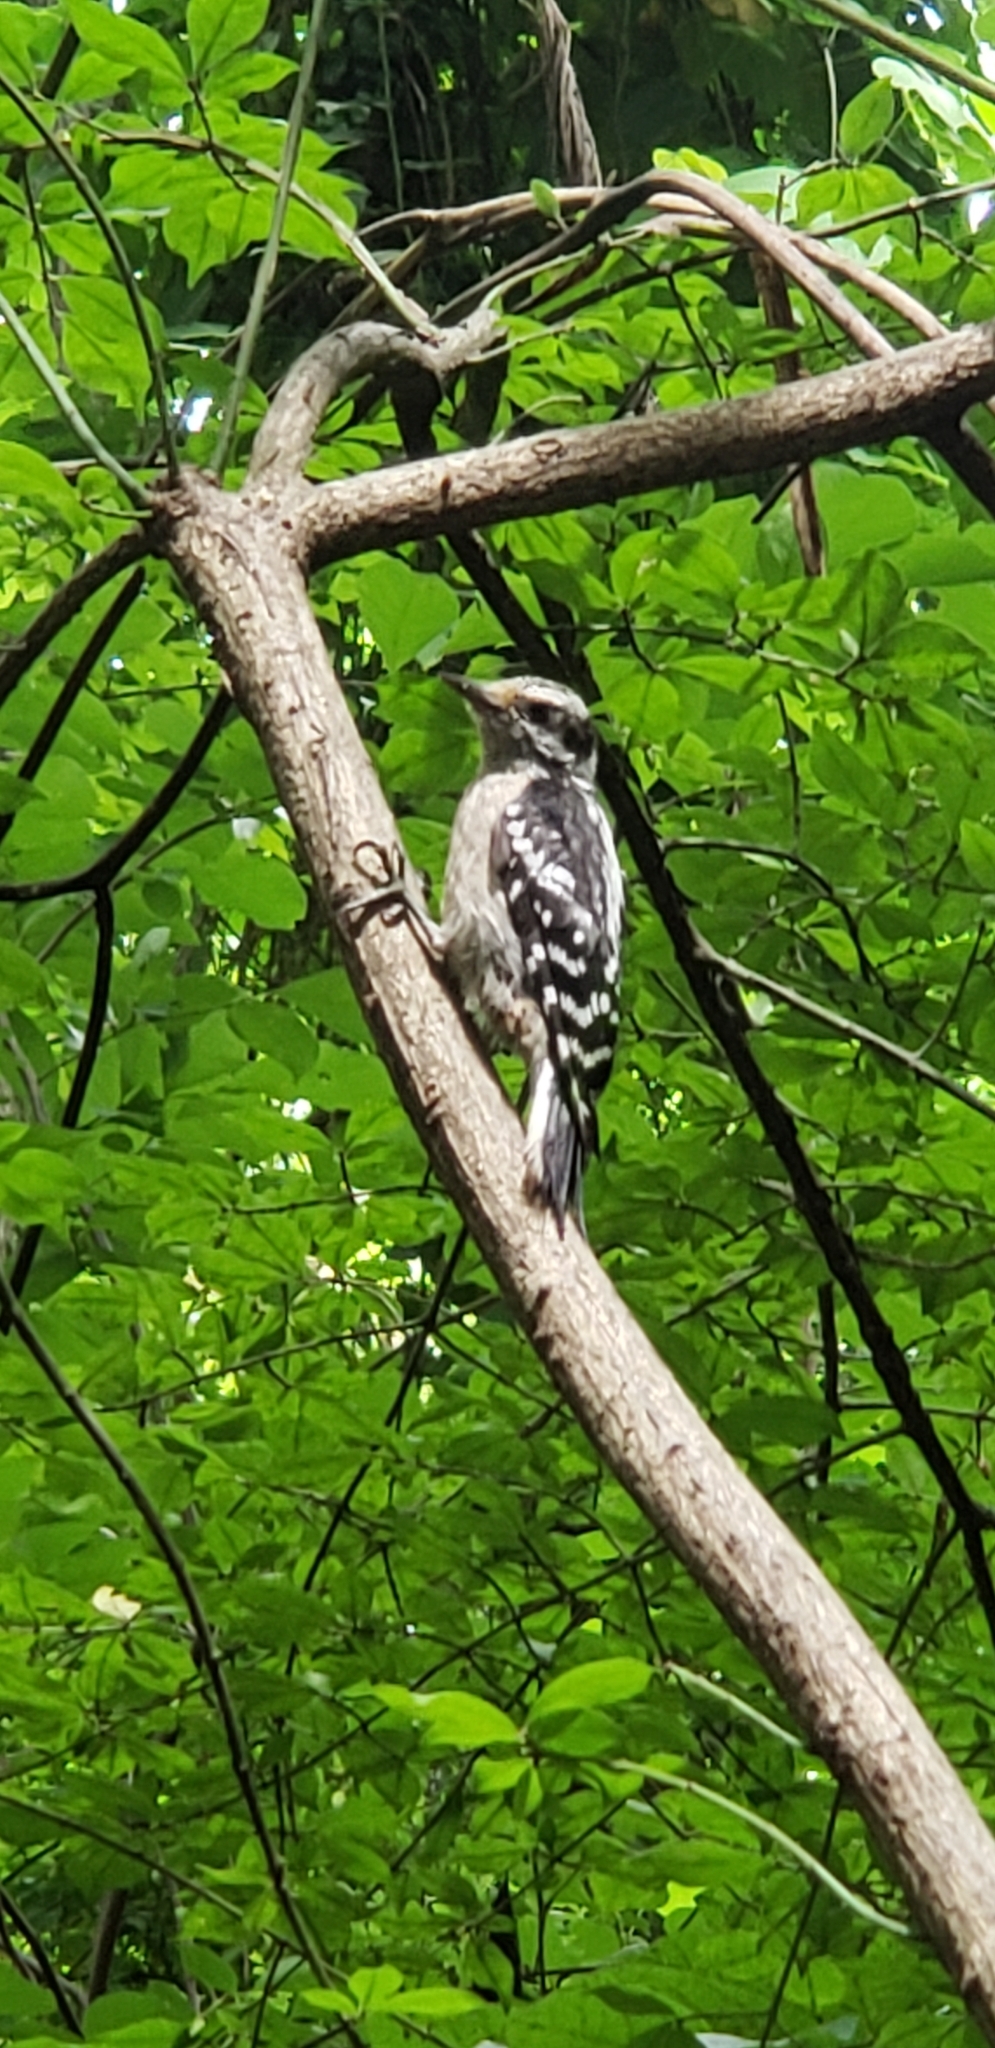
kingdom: Animalia
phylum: Chordata
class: Aves
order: Piciformes
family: Picidae
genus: Leuconotopicus
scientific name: Leuconotopicus villosus
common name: Hairy woodpecker
